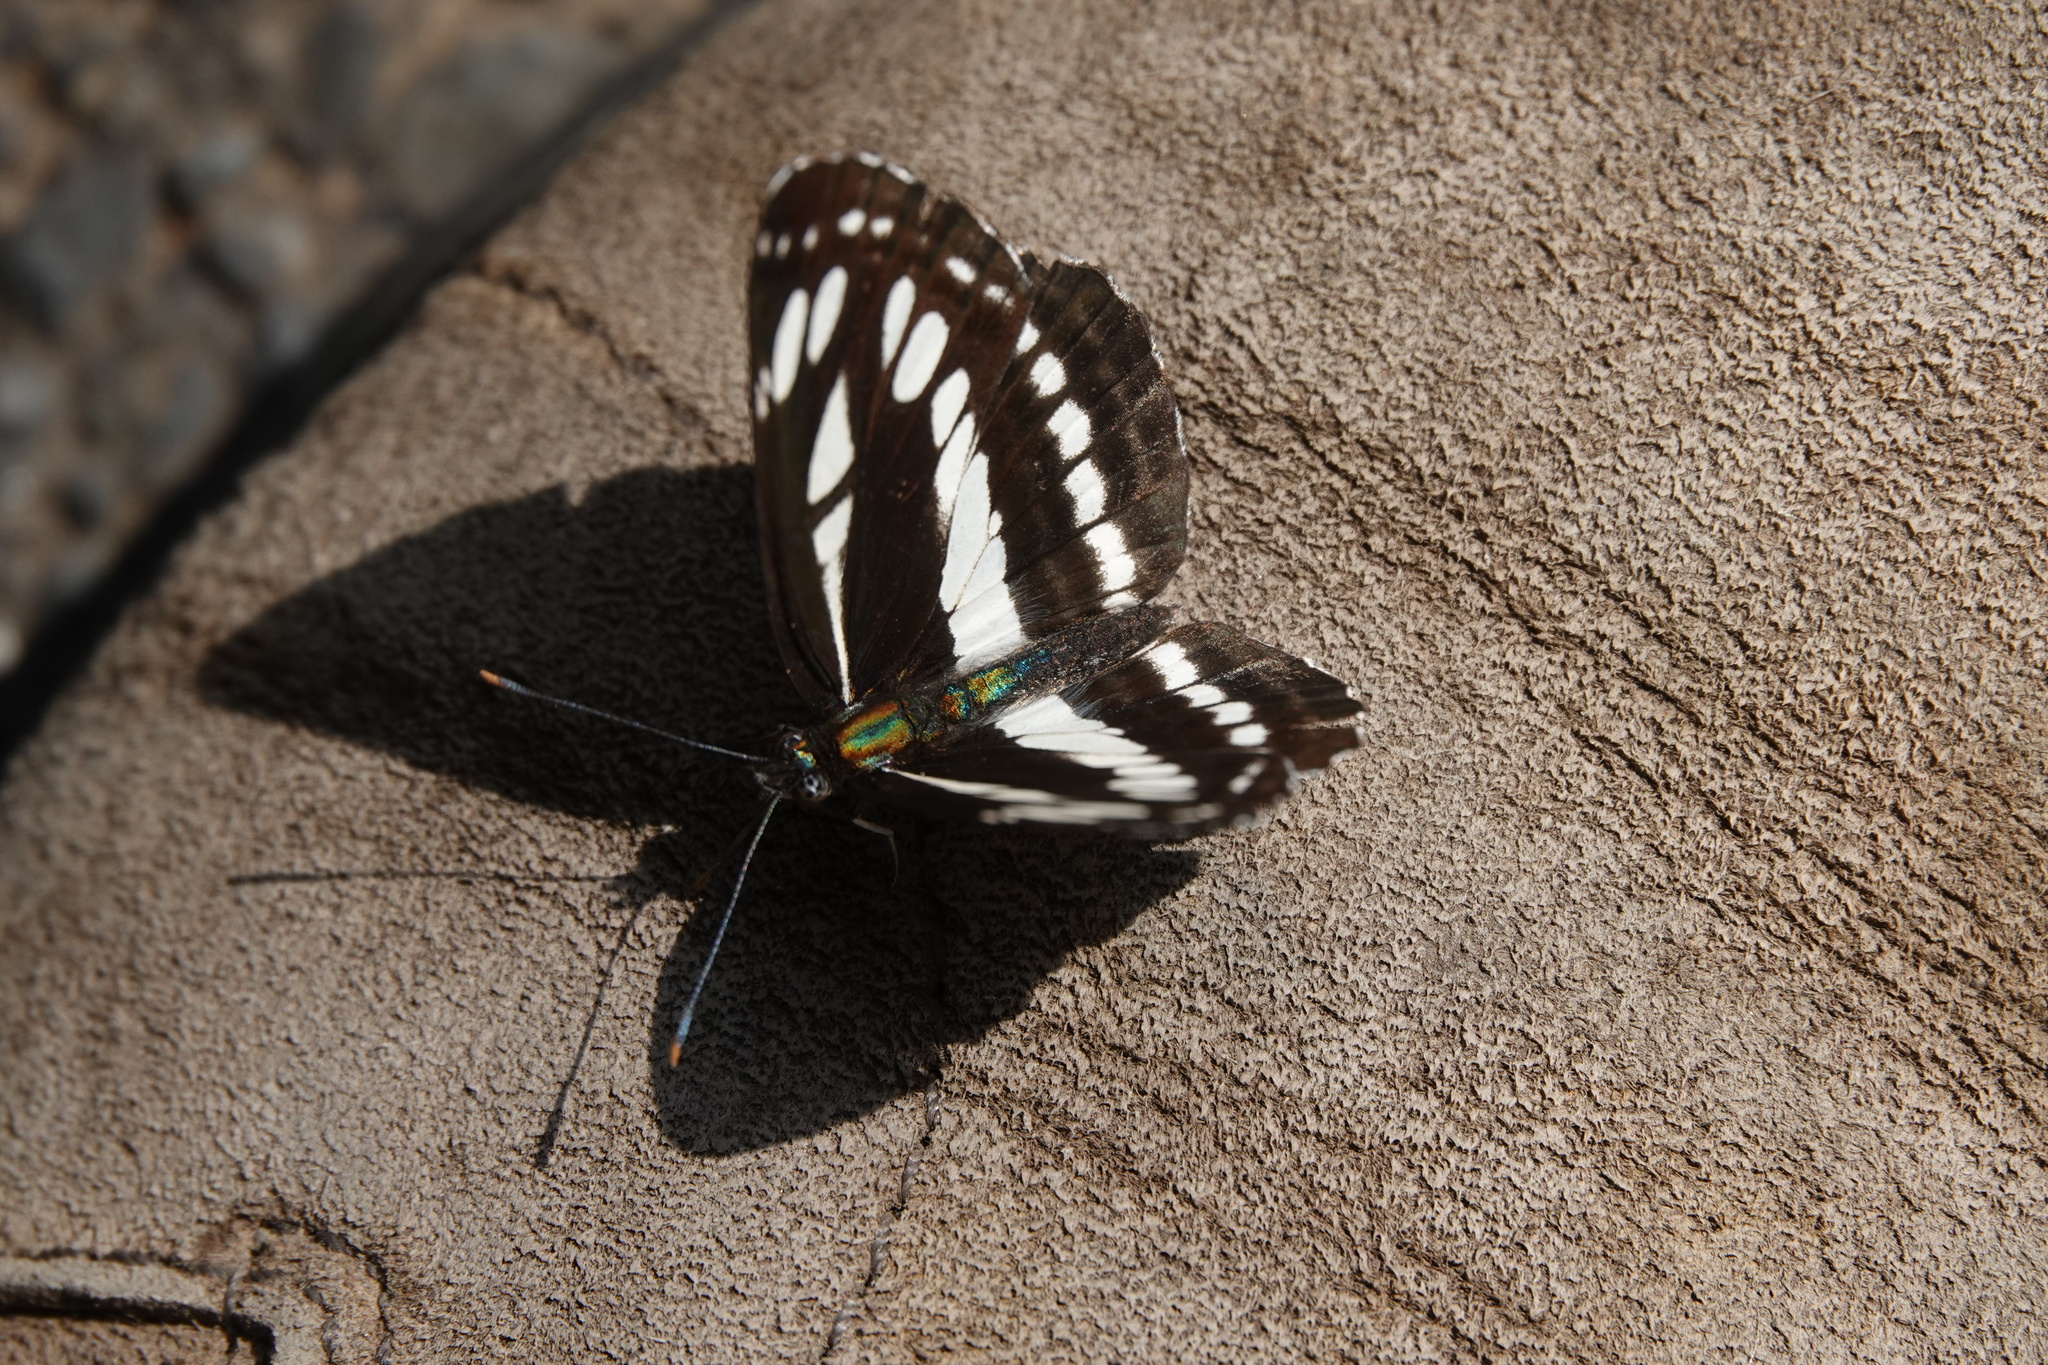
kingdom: Animalia
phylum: Arthropoda
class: Insecta
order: Lepidoptera
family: Nymphalidae
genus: Neptis
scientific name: Neptis sappho
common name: Common glider
